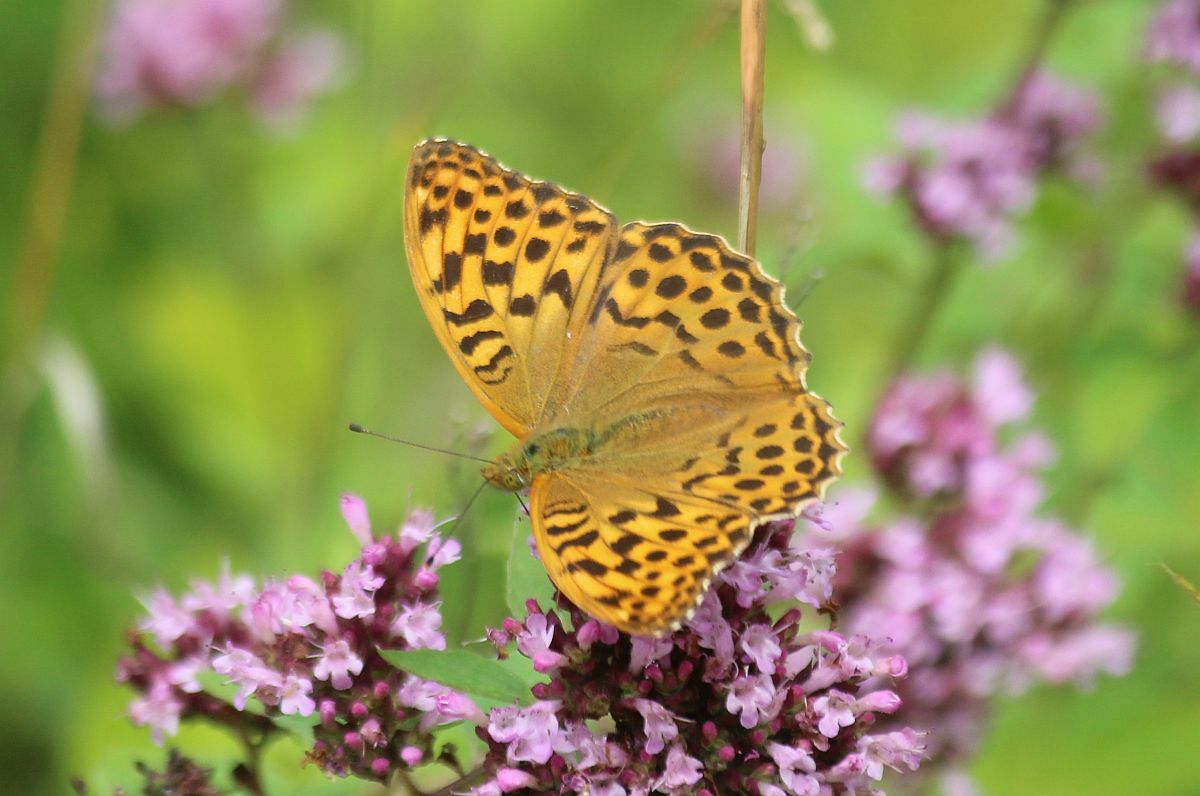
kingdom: Animalia
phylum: Arthropoda
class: Insecta
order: Lepidoptera
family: Nymphalidae
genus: Argynnis
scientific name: Argynnis paphia
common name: Silver-washed fritillary
